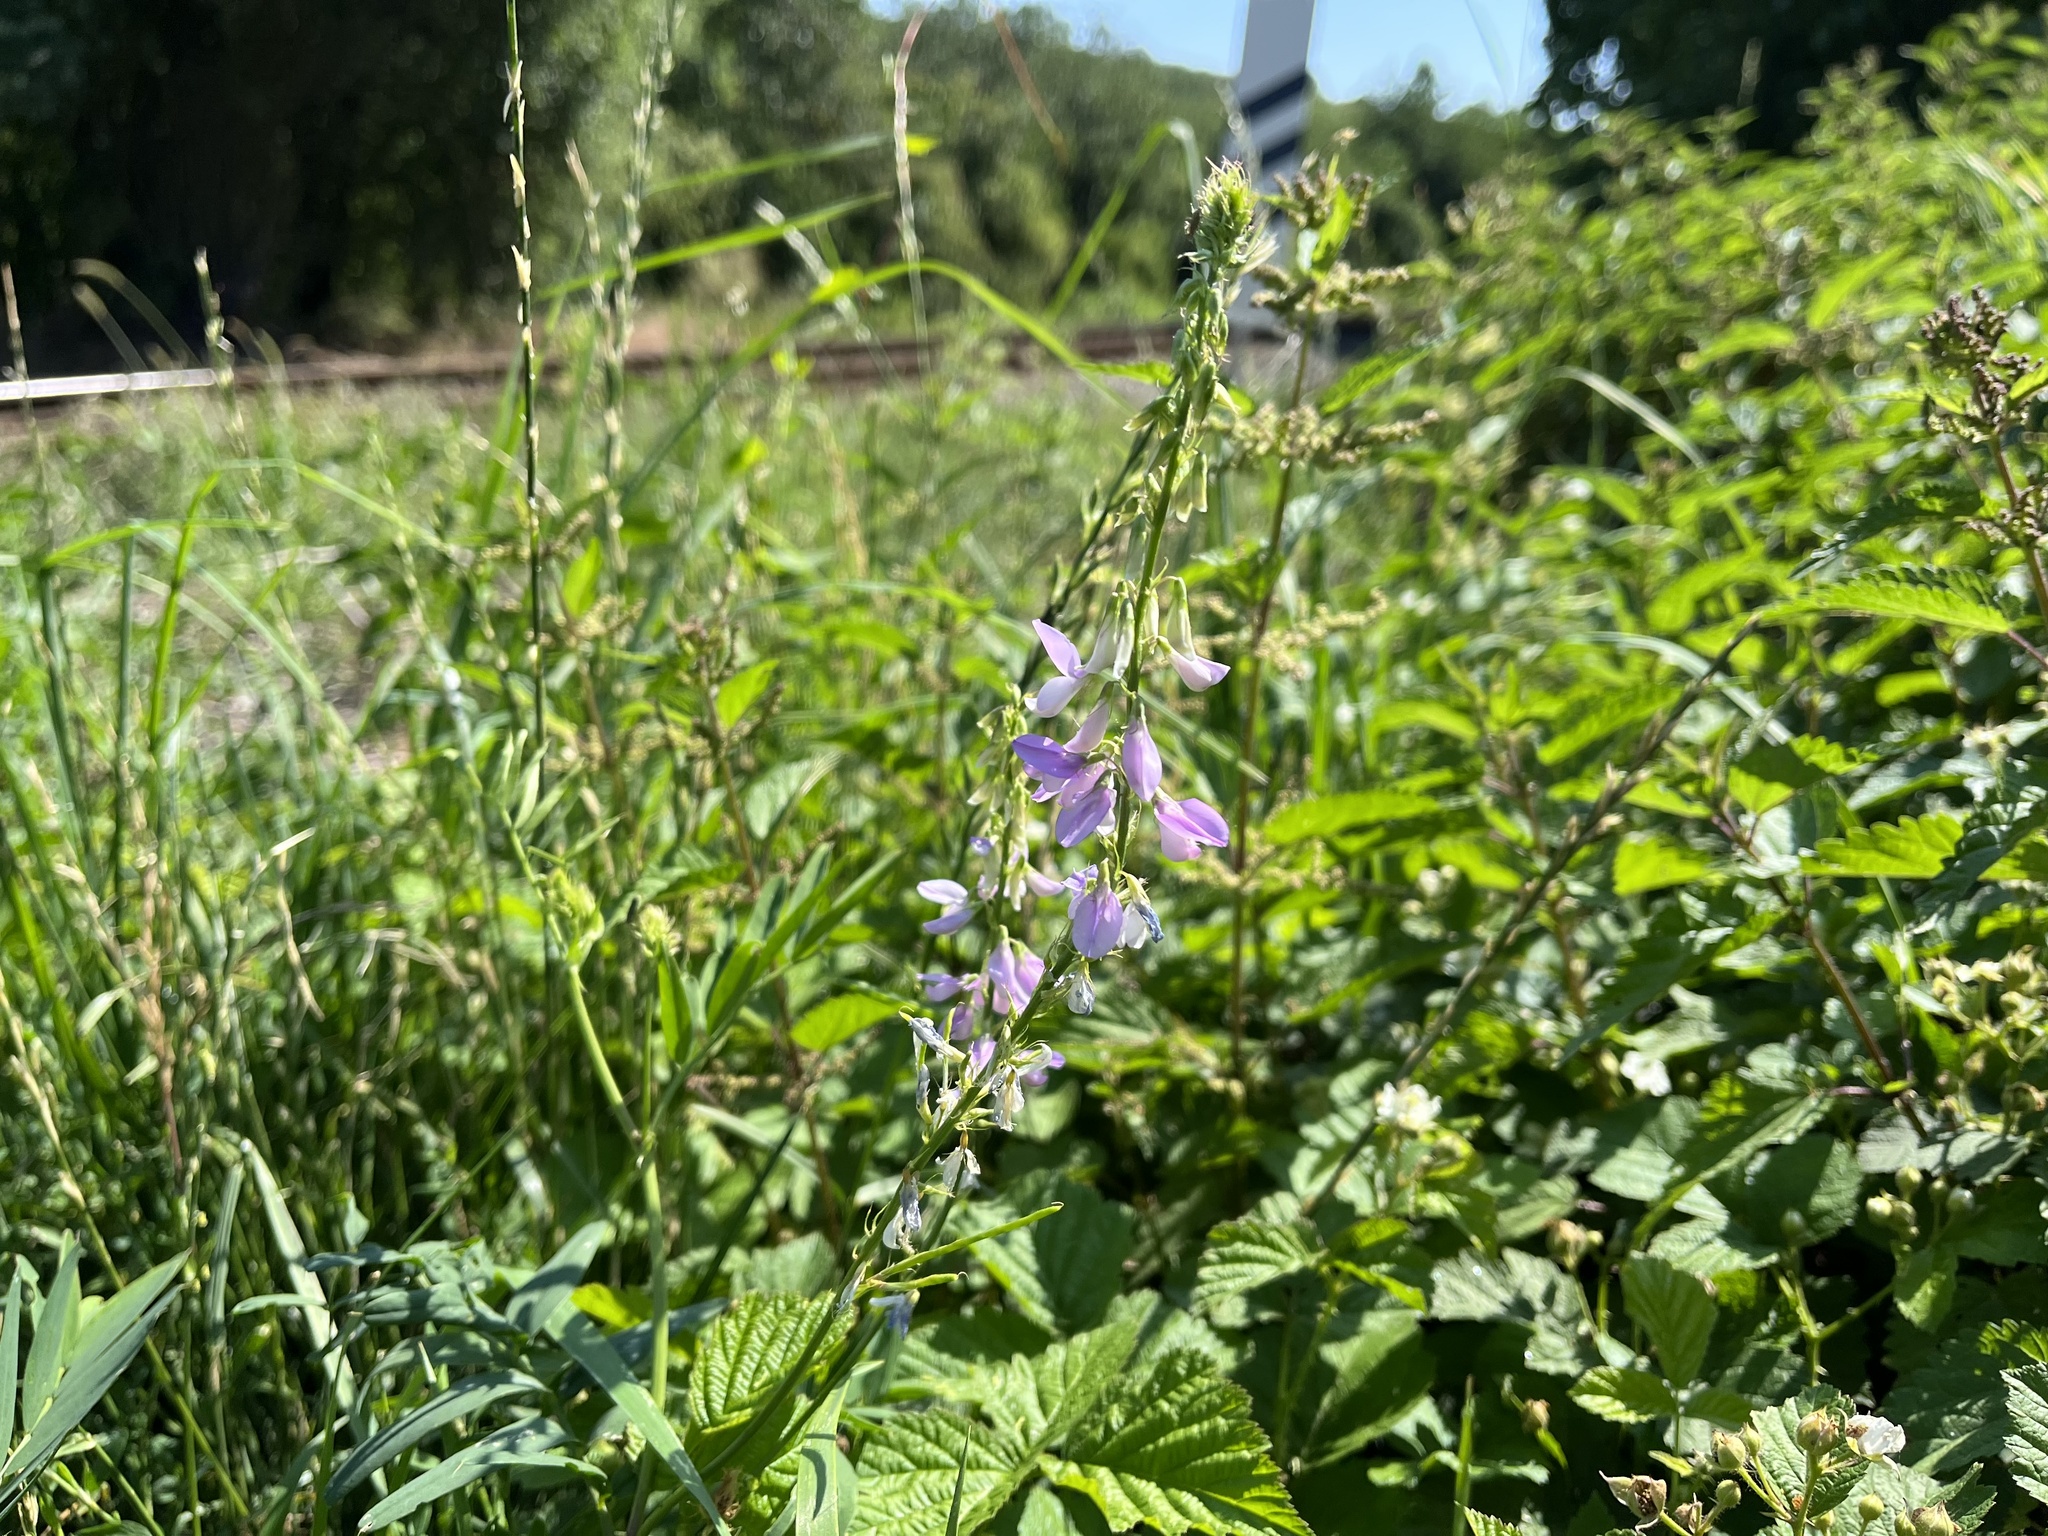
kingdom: Plantae
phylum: Tracheophyta
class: Magnoliopsida
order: Fabales
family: Fabaceae
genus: Galega
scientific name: Galega officinalis
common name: Goat's-rue
